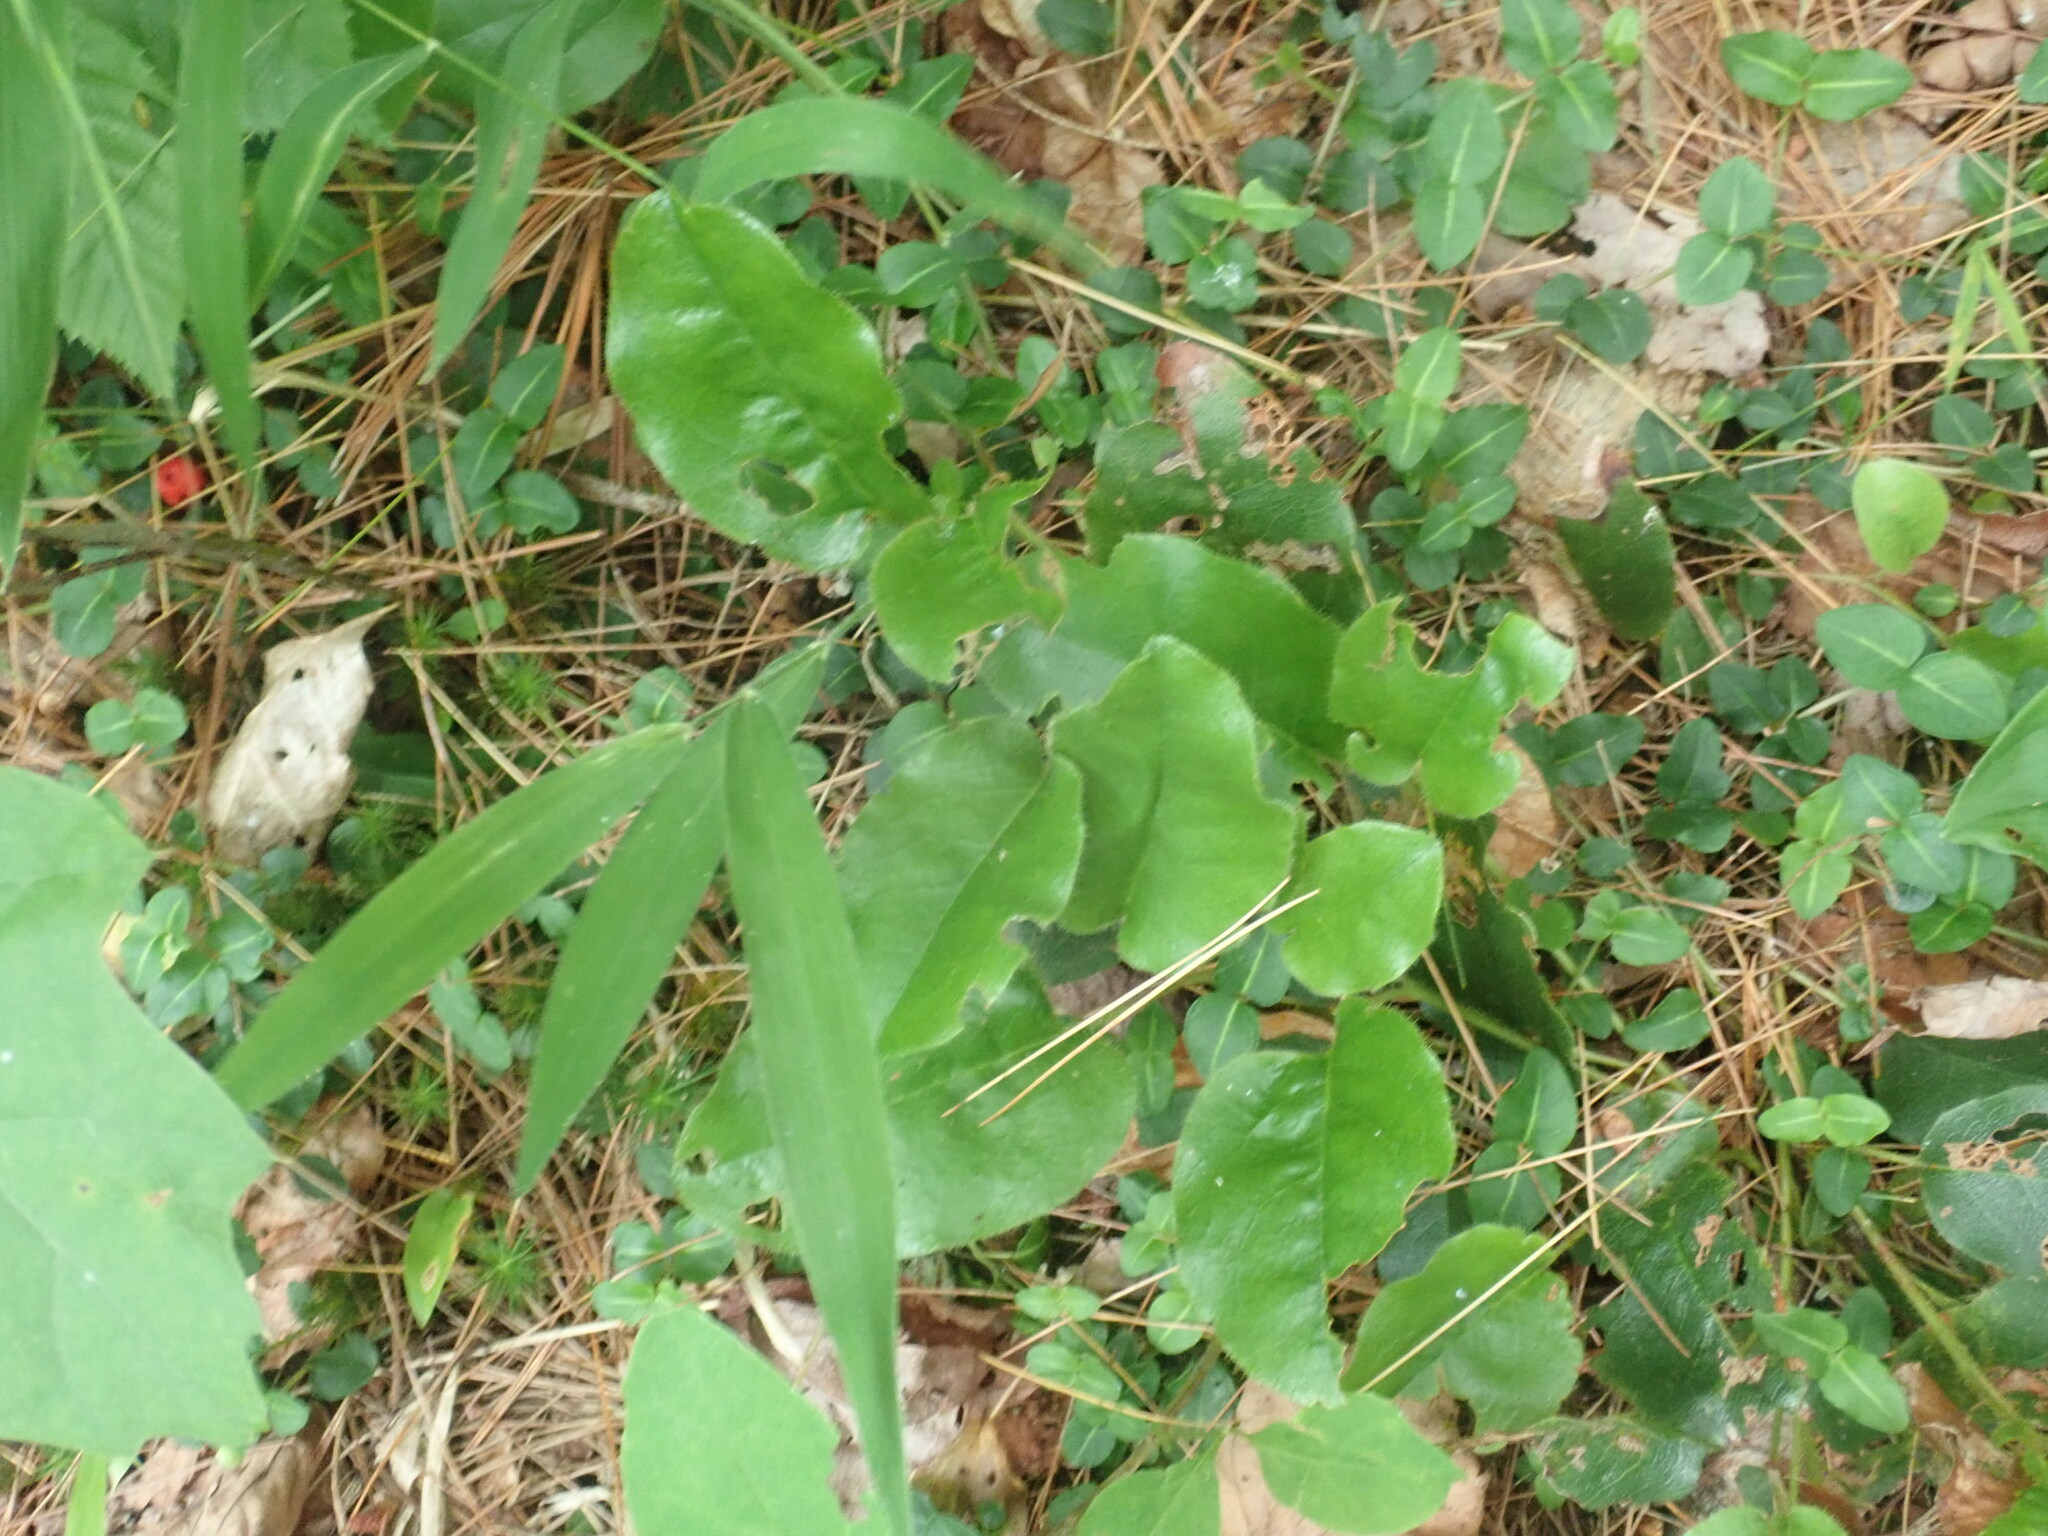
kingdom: Plantae
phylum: Tracheophyta
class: Magnoliopsida
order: Ericales
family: Ericaceae
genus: Epigaea
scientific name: Epigaea repens
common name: Gravelroot
